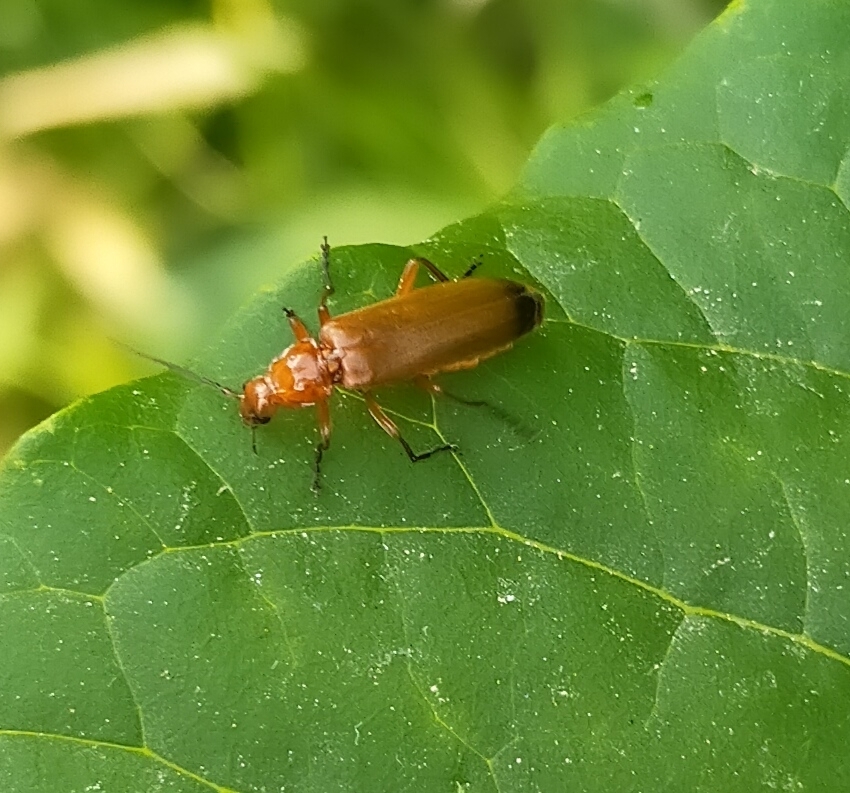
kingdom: Animalia
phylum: Arthropoda
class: Insecta
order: Coleoptera
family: Cantharidae
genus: Rhagonycha
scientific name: Rhagonycha fulva
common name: Common red soldier beetle
